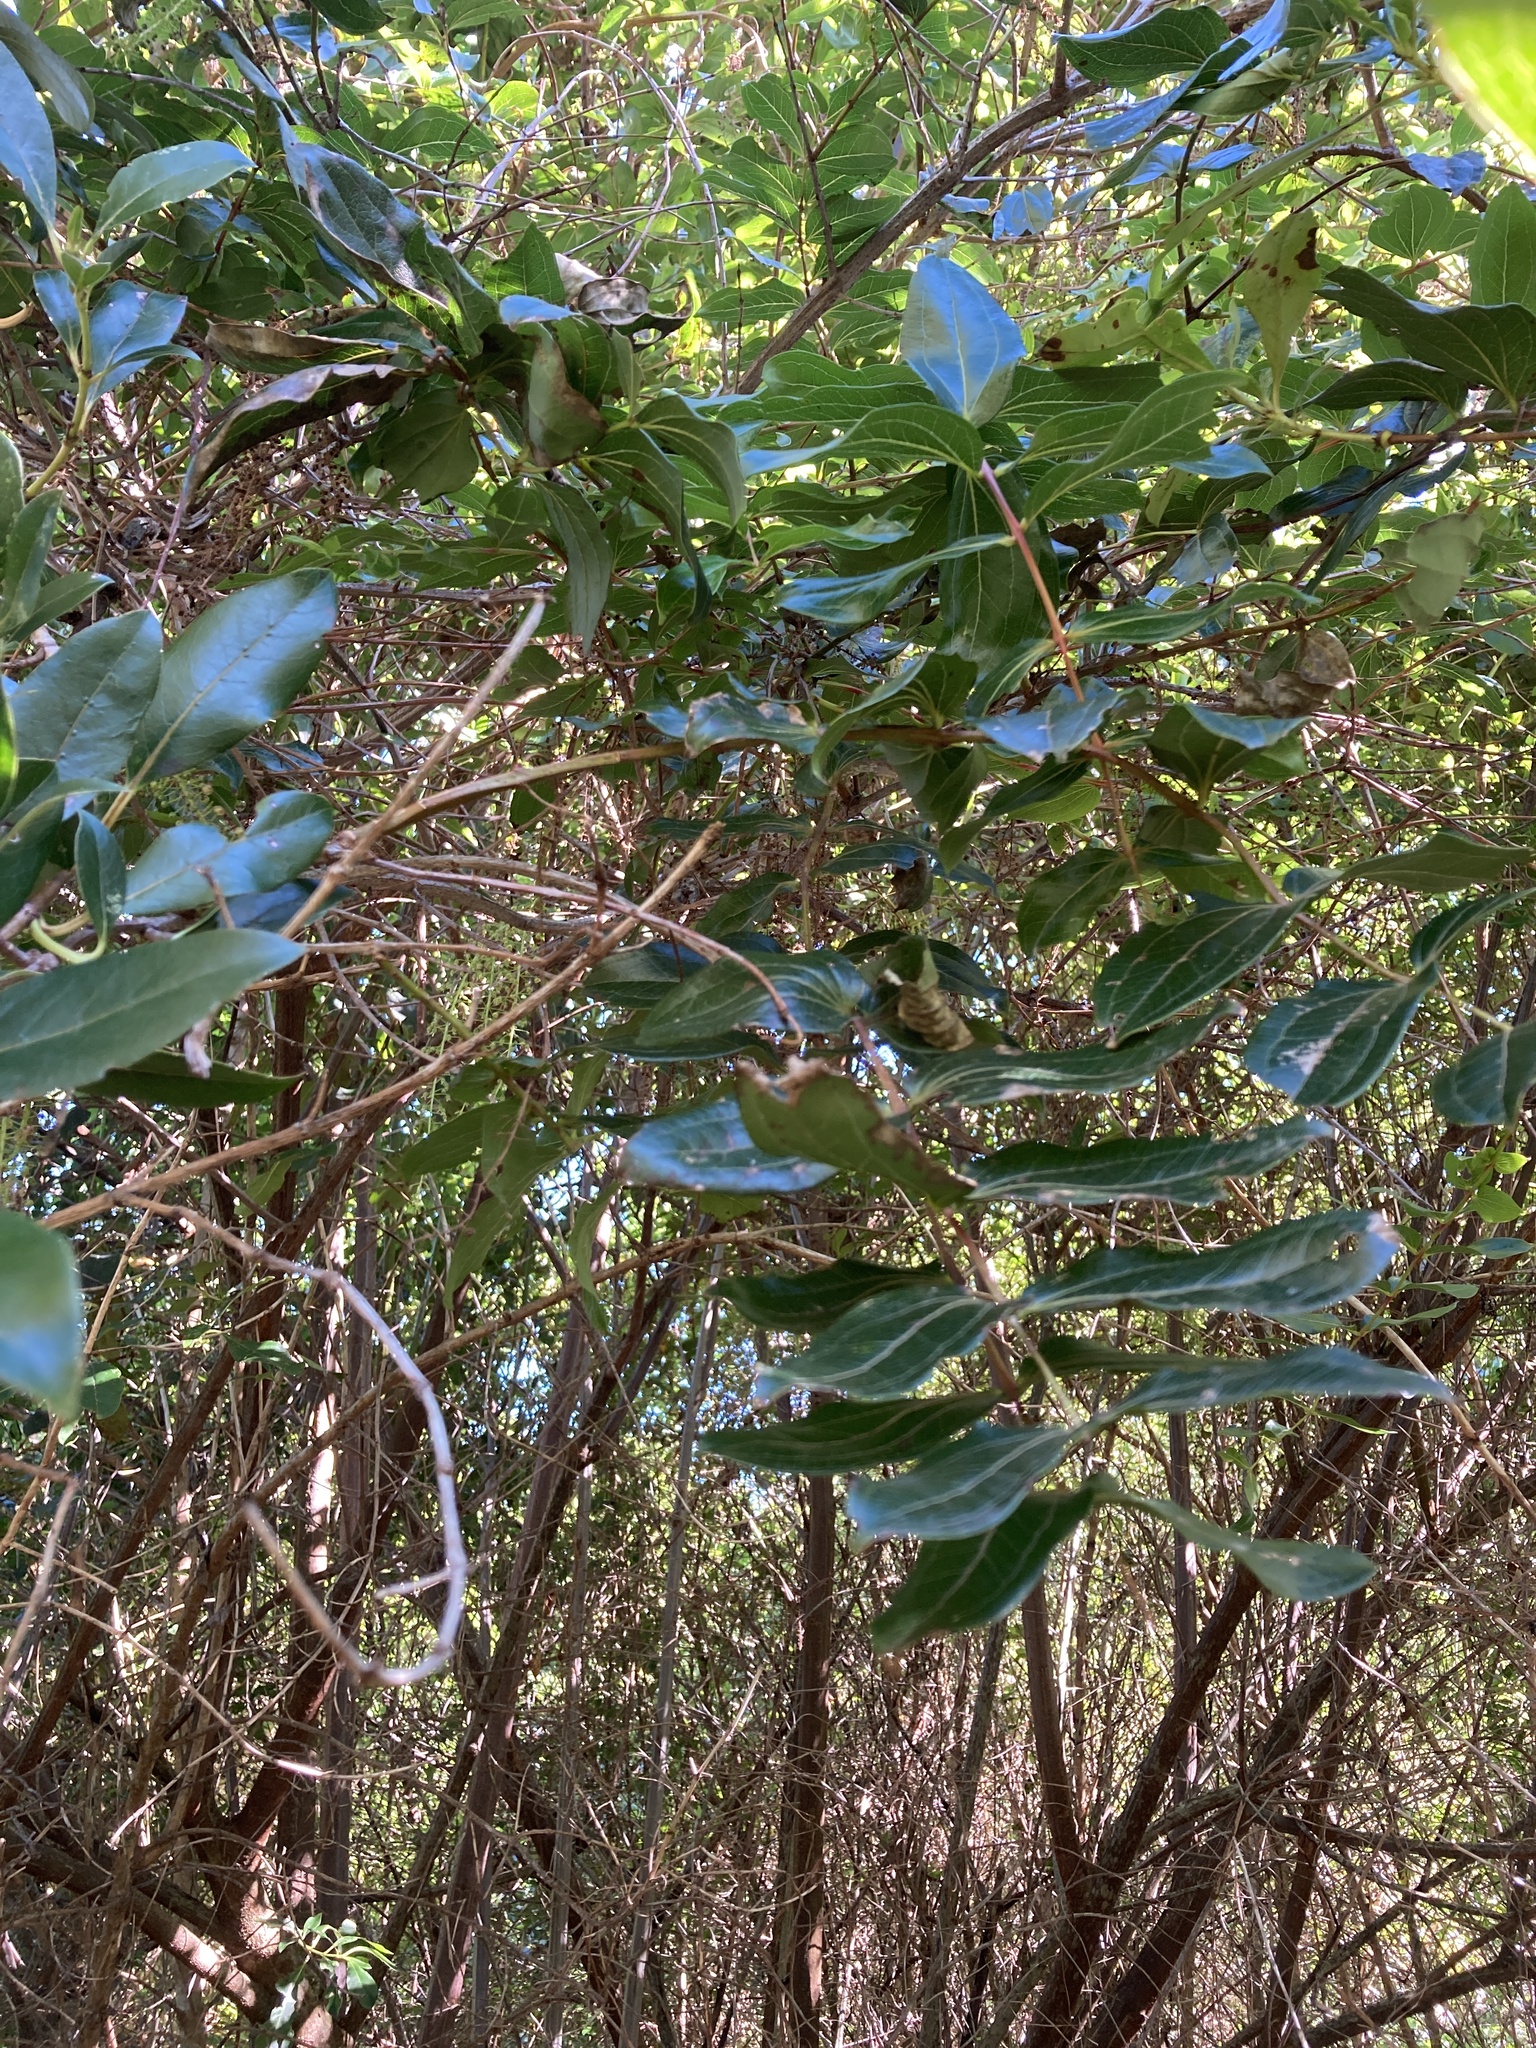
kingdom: Plantae
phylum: Tracheophyta
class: Magnoliopsida
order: Cucurbitales
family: Coriariaceae
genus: Coriaria
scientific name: Coriaria arborea
